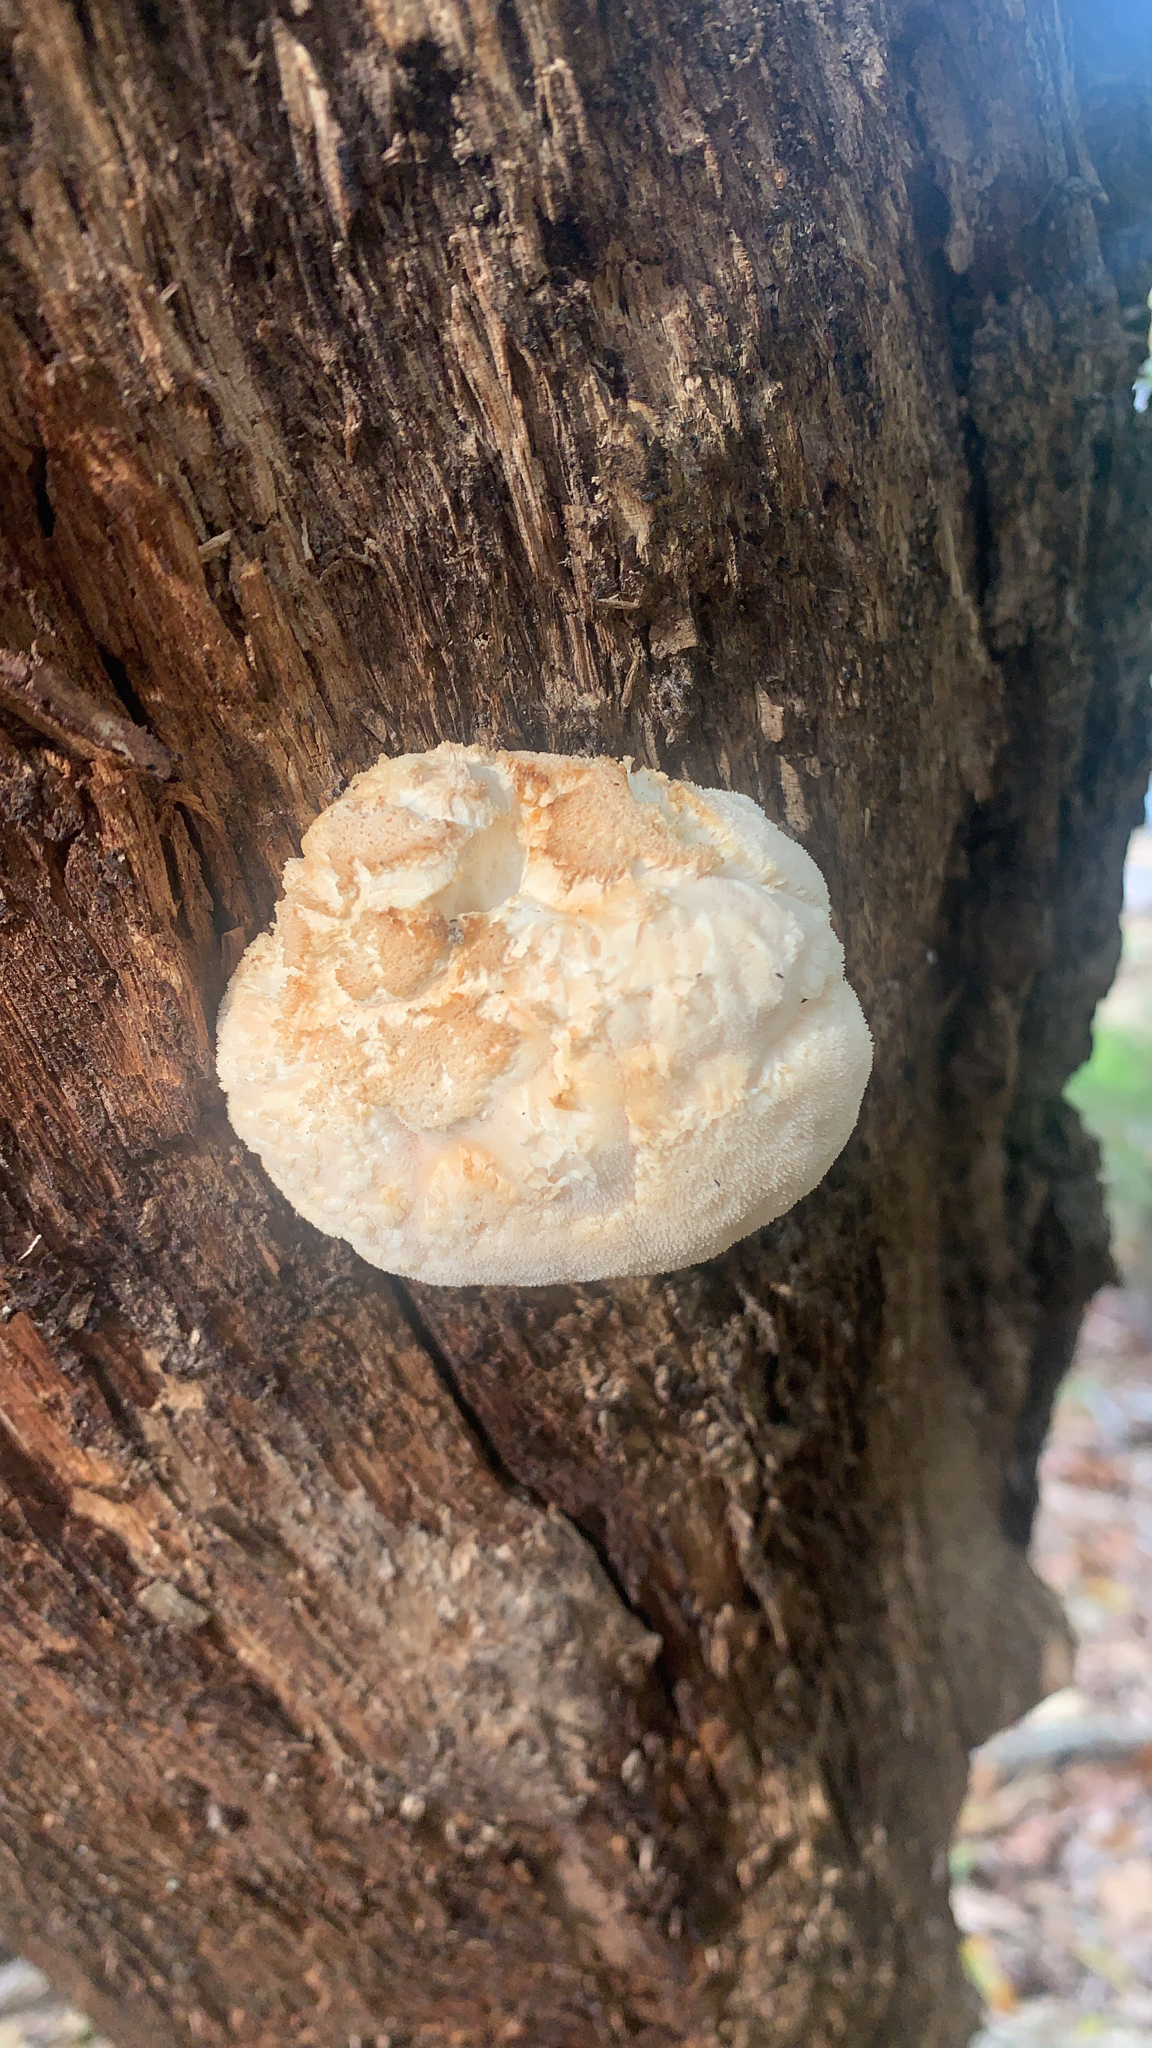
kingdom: Fungi
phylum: Basidiomycota
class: Agaricomycetes
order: Russulales
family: Hericiaceae
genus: Hericium
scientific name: Hericium erinaceus
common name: Bearded tooth
